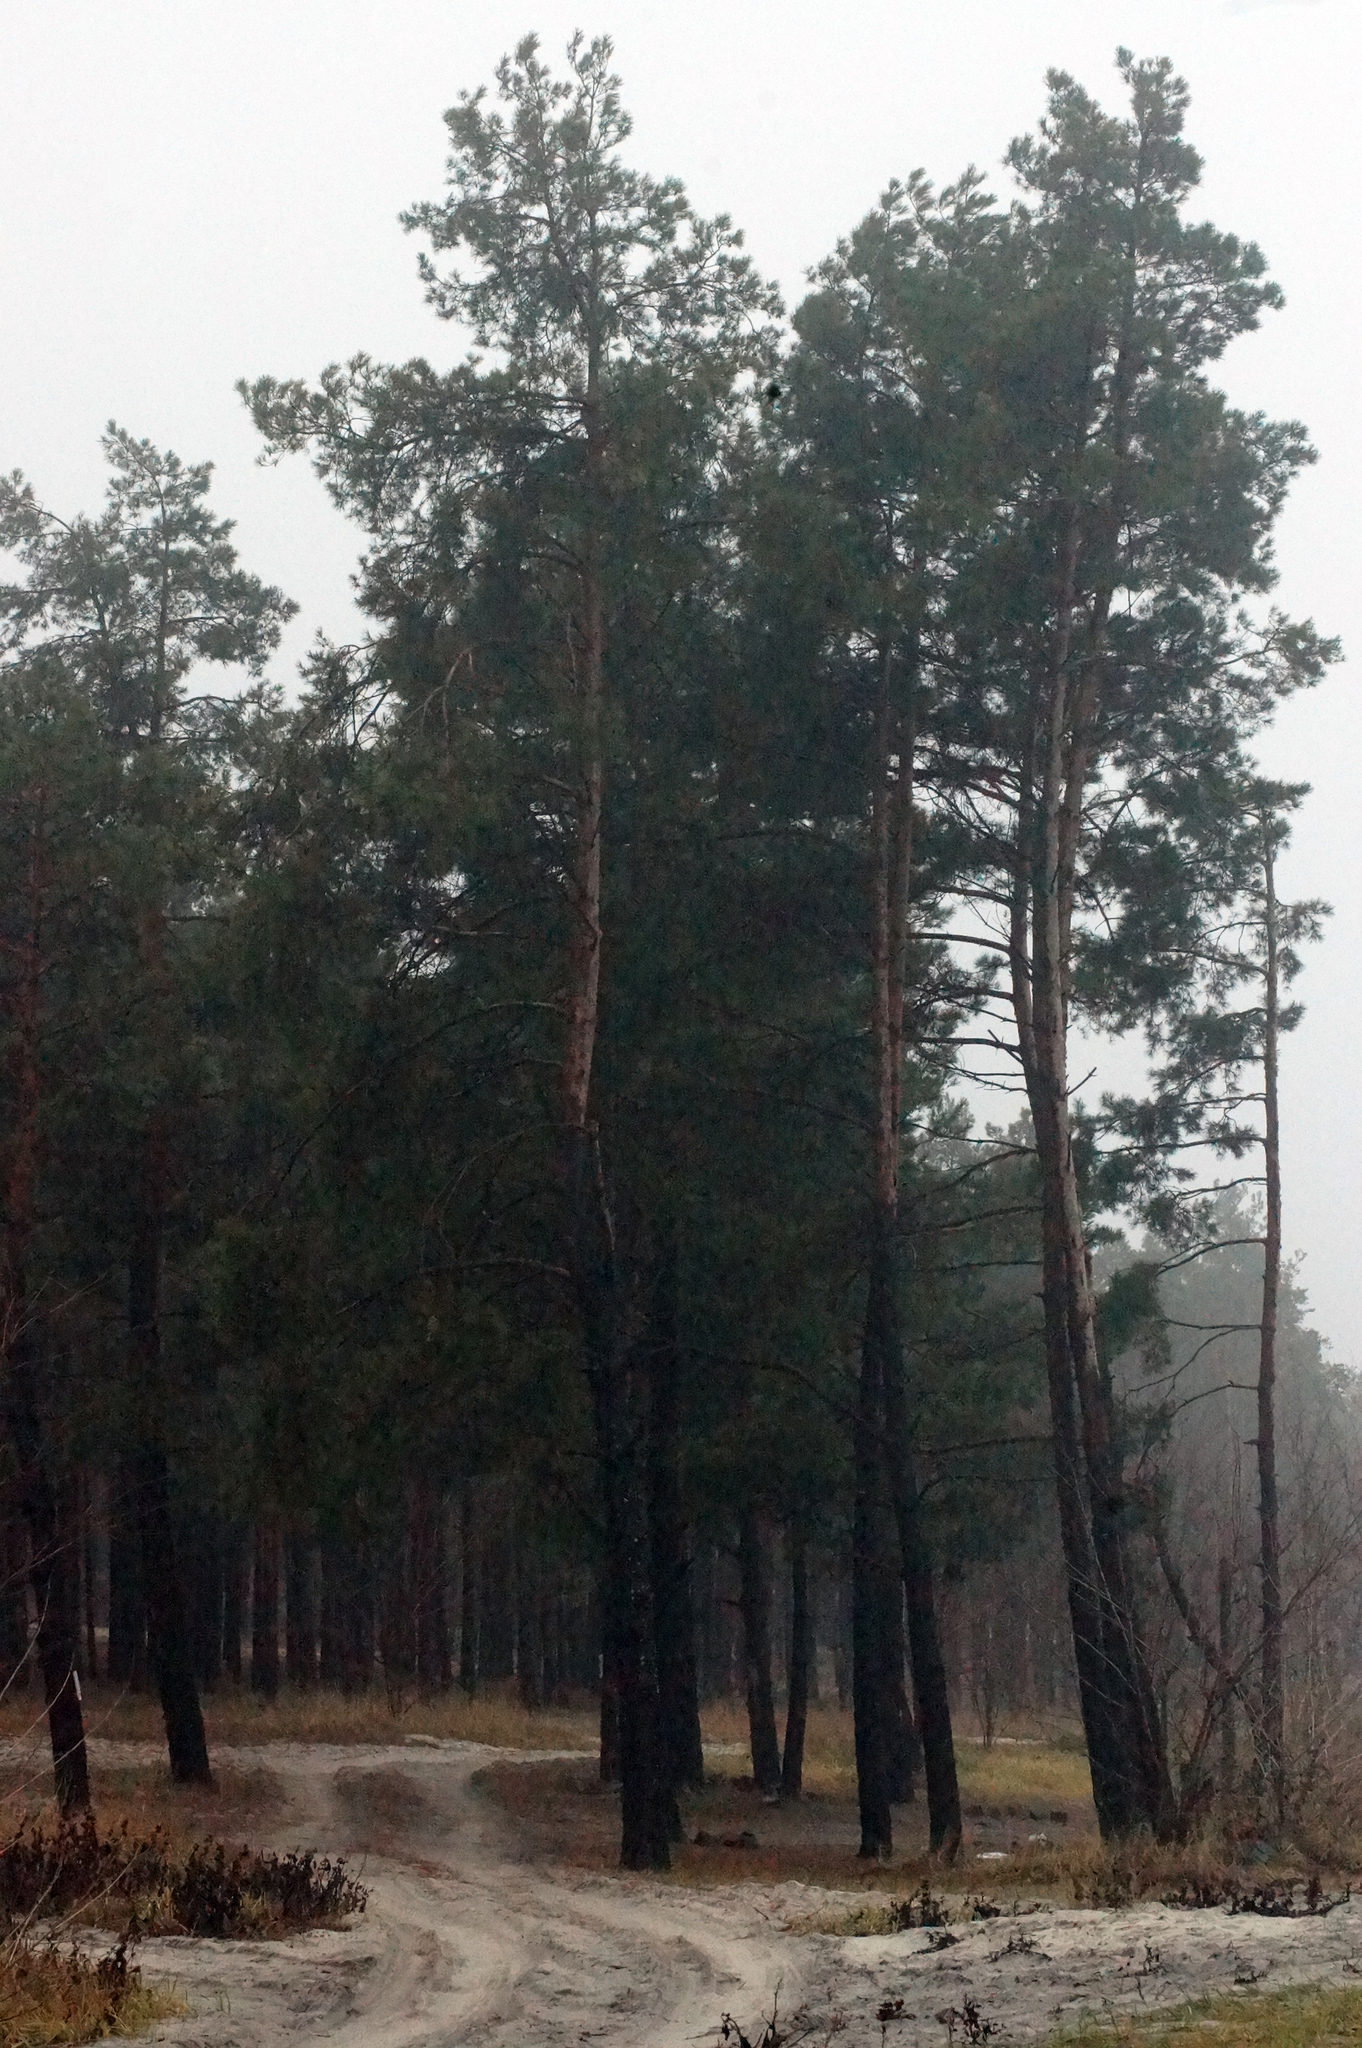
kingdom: Plantae
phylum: Tracheophyta
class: Pinopsida
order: Pinales
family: Pinaceae
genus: Pinus
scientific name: Pinus sylvestris
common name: Scots pine
